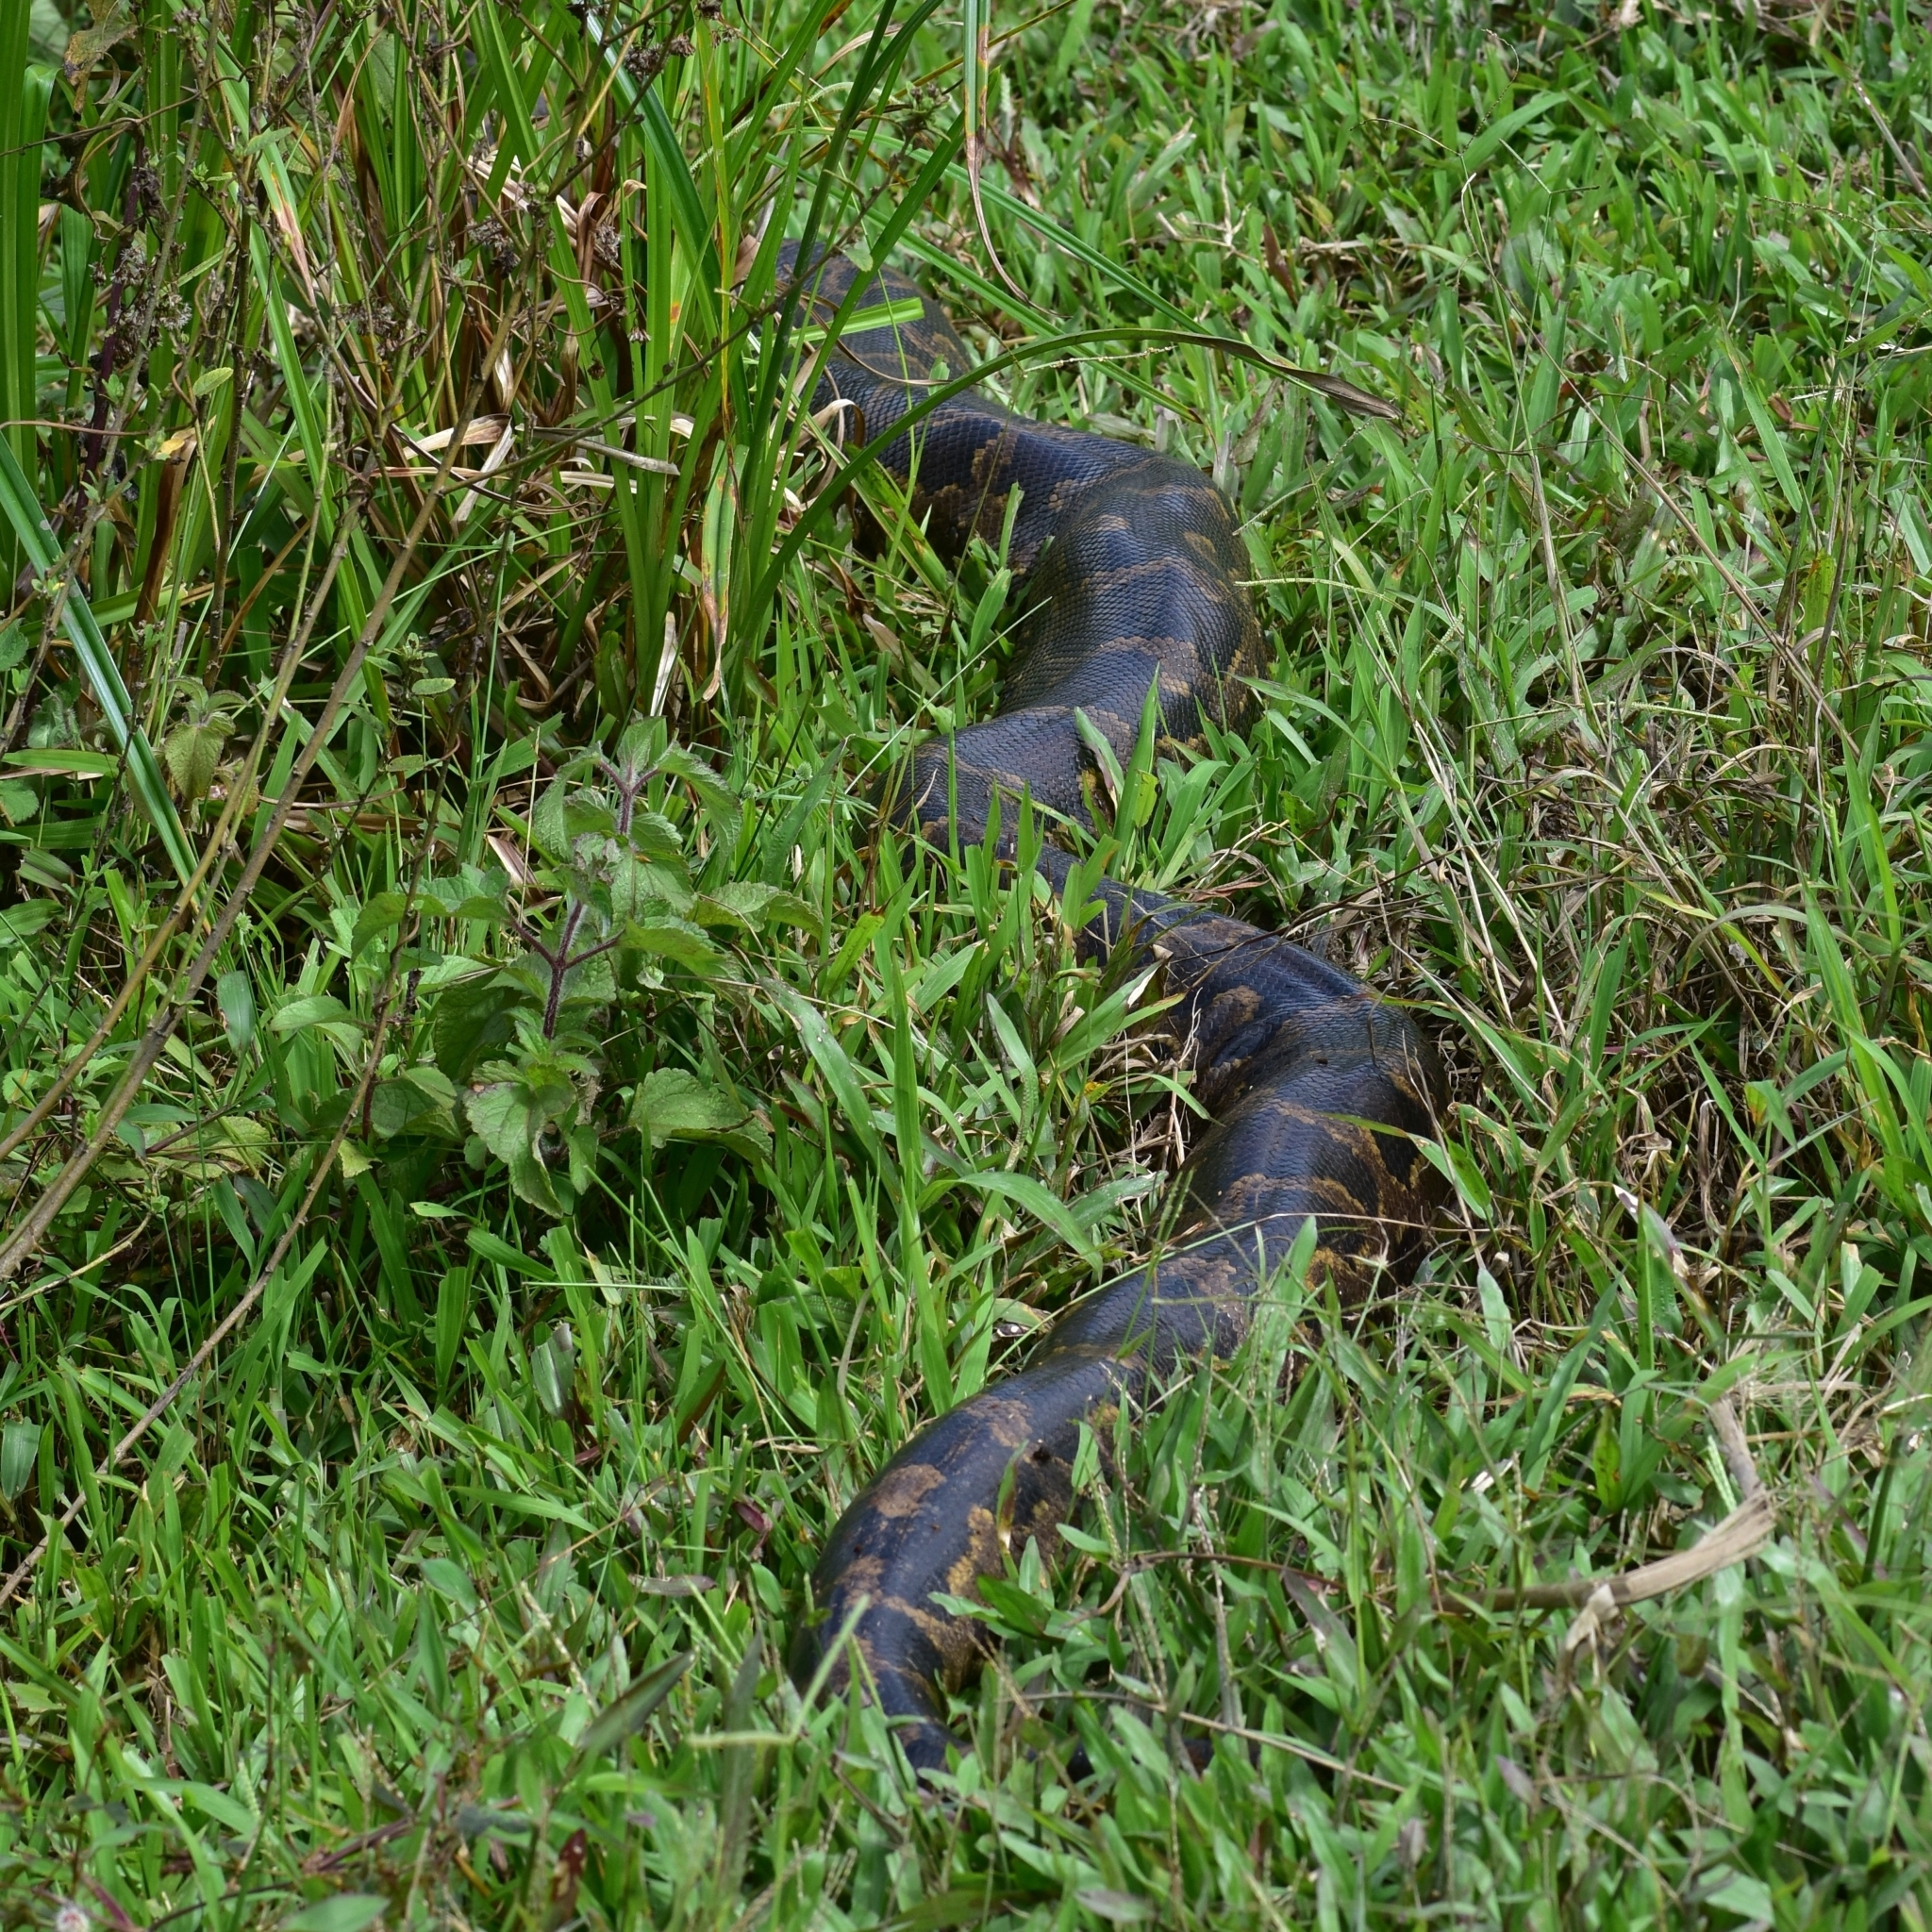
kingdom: Animalia
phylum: Chordata
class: Squamata
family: Pythonidae
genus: Python
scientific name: Python molurus
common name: Indian rock python
